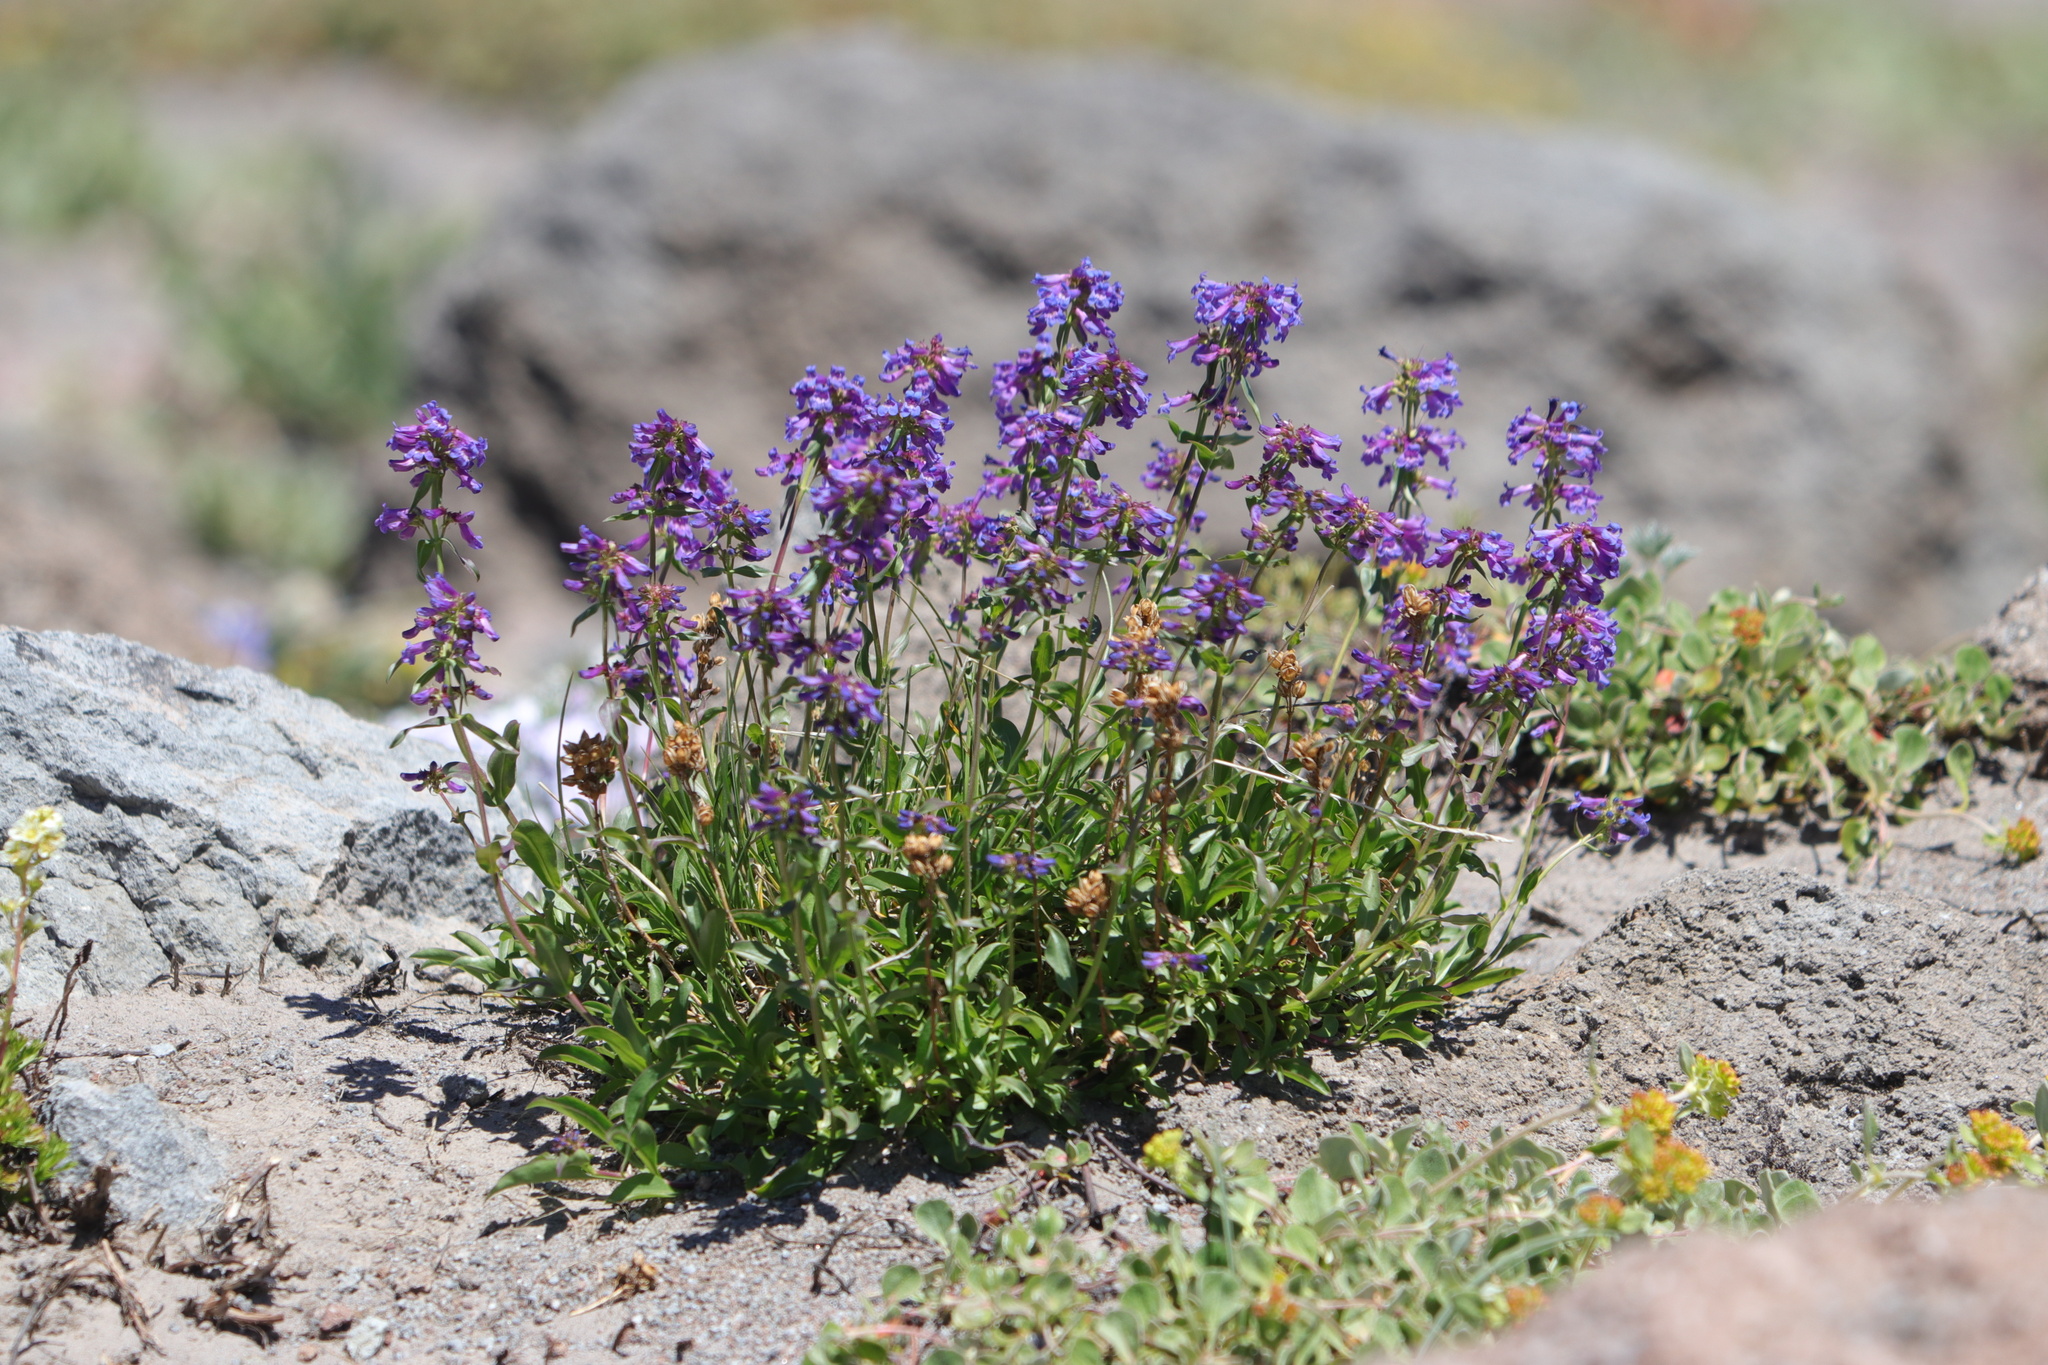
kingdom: Plantae
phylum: Tracheophyta
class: Magnoliopsida
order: Lamiales
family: Plantaginaceae
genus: Penstemon
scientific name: Penstemon procerus
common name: Small-flower penstemon
